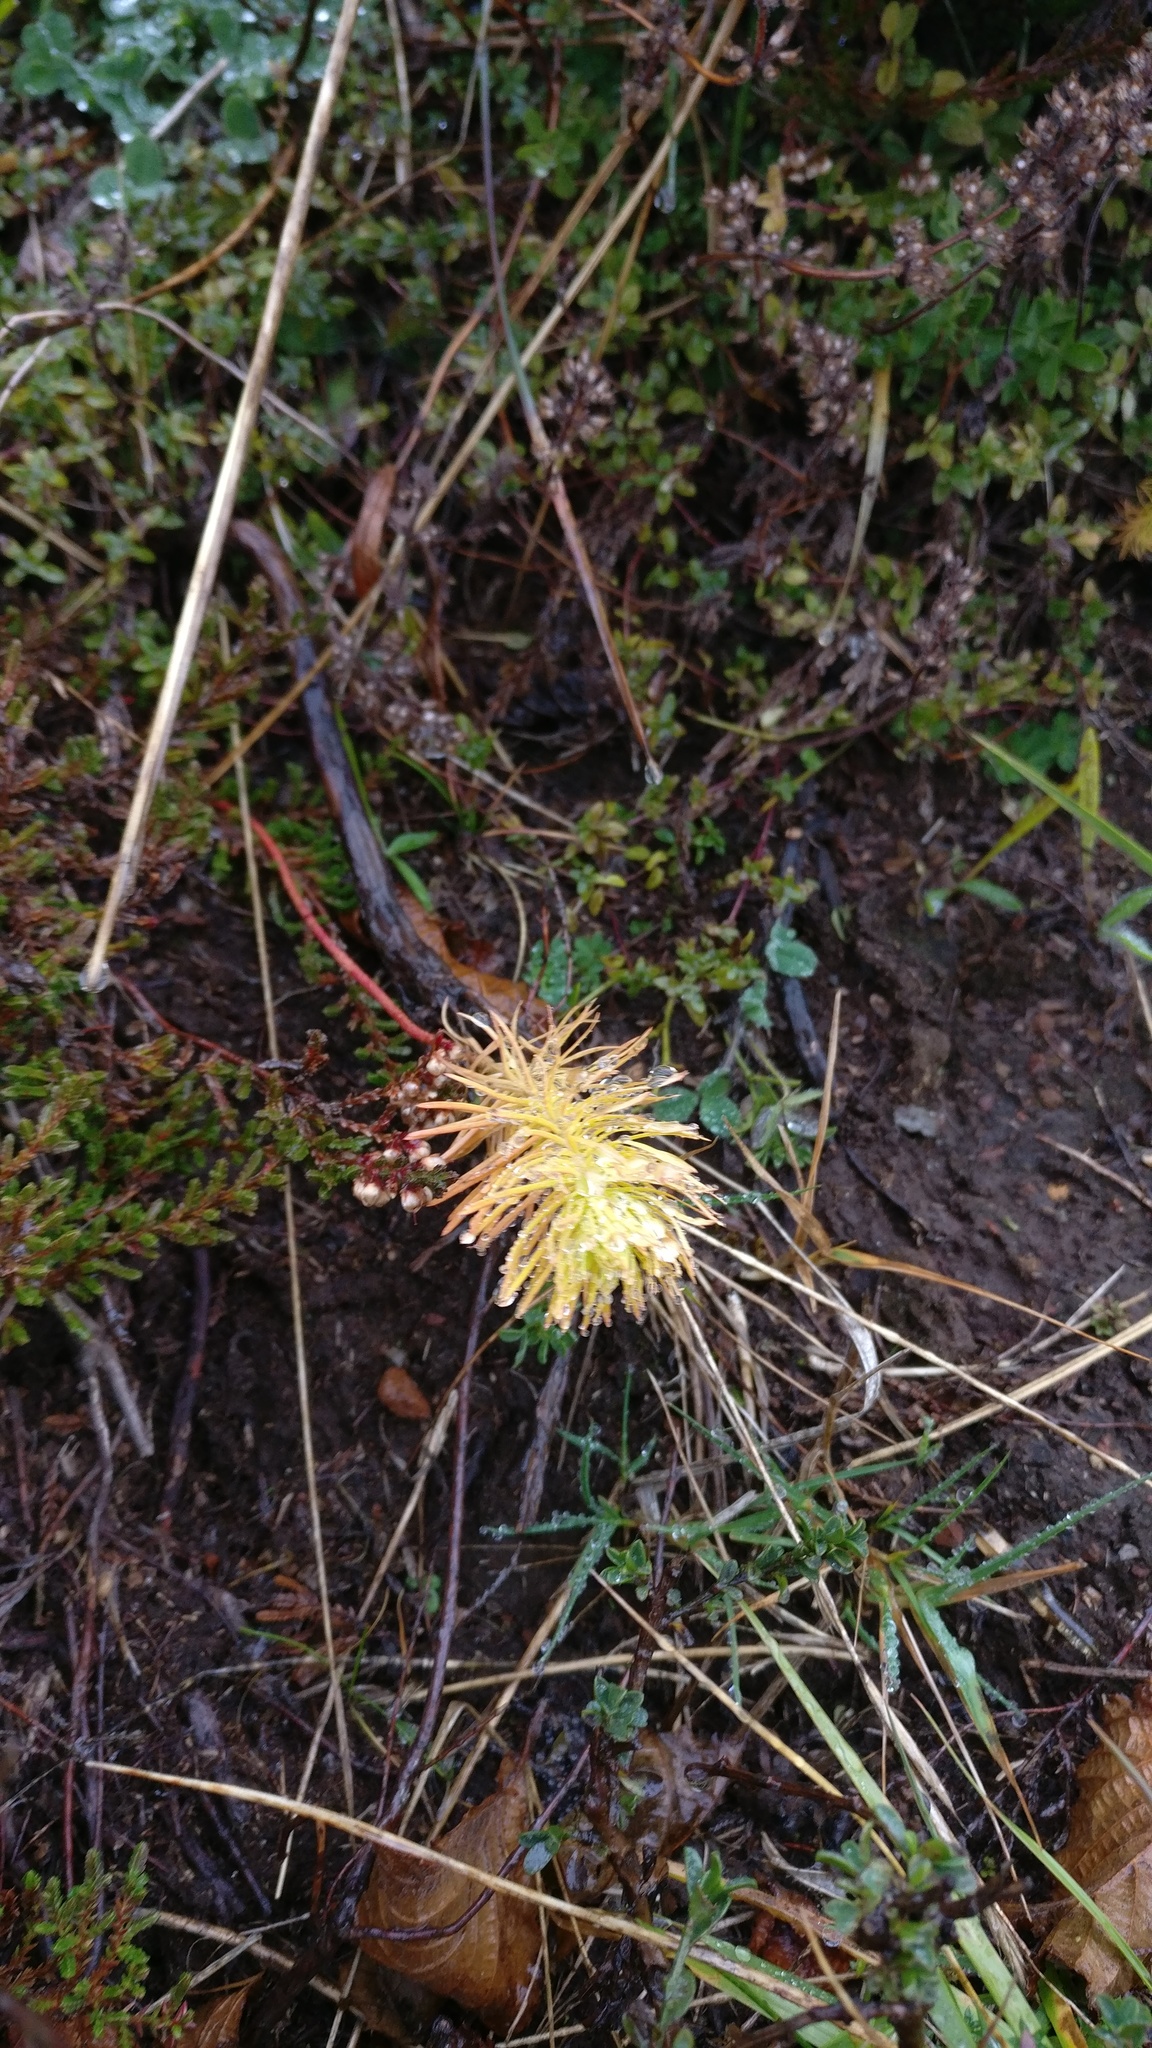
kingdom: Plantae
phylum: Tracheophyta
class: Magnoliopsida
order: Malpighiales
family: Euphorbiaceae
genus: Euphorbia
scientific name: Euphorbia cyparissias
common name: Cypress spurge
